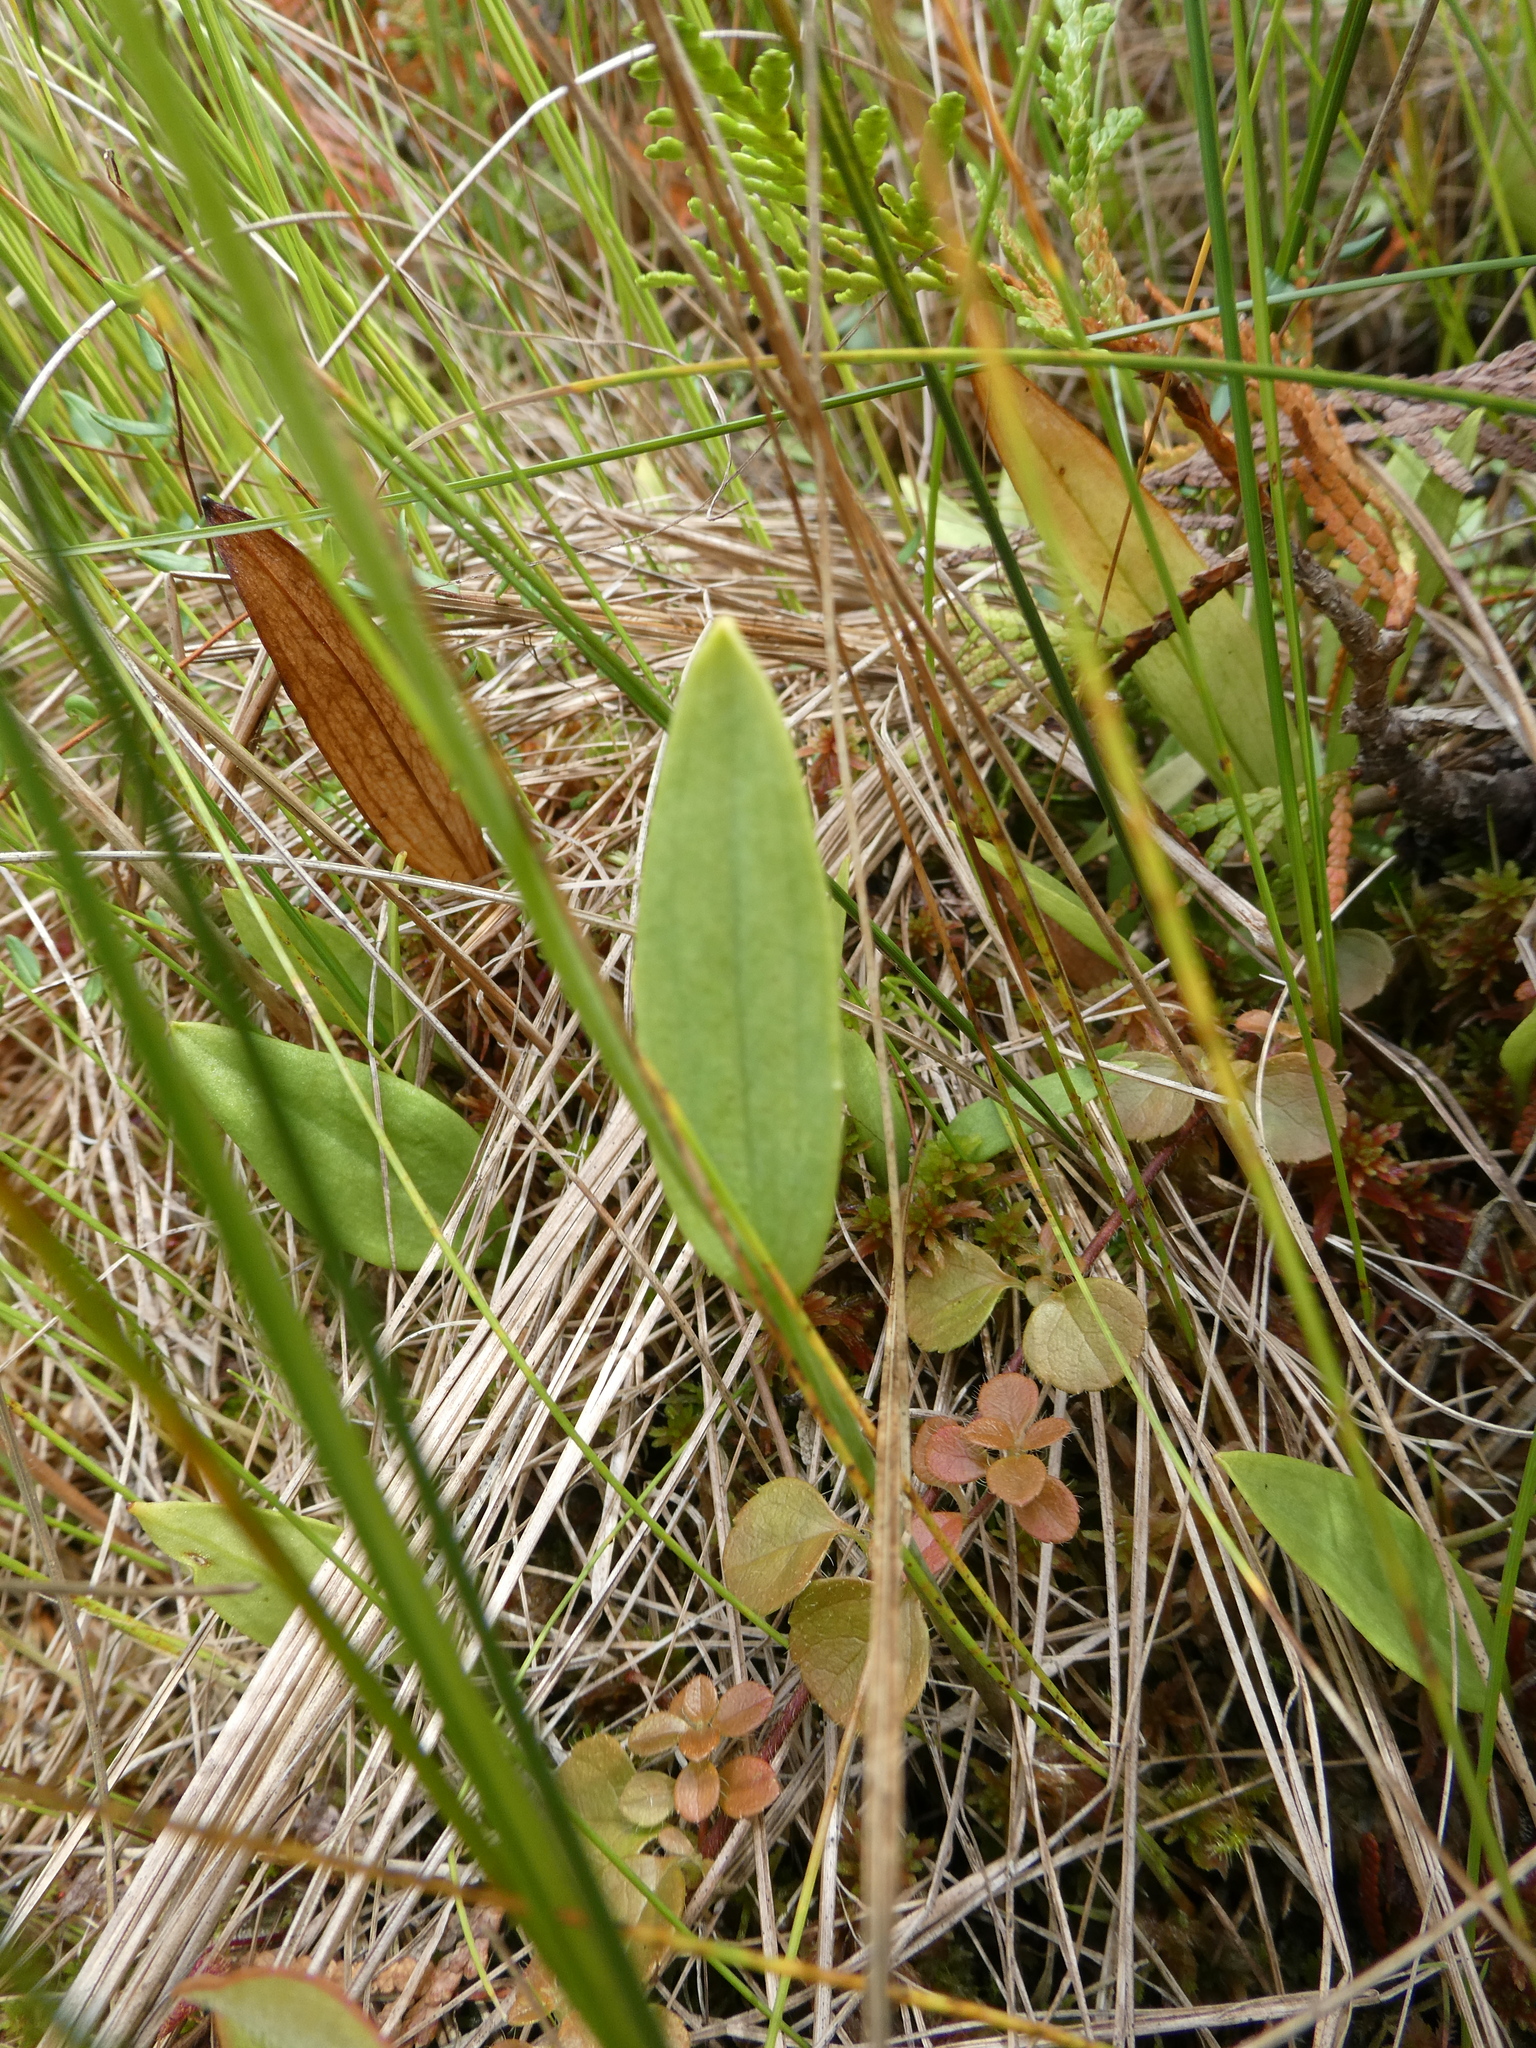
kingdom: Plantae
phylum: Tracheophyta
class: Liliopsida
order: Asparagales
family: Orchidaceae
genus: Pogonia
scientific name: Pogonia ophioglossoides
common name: Rose pogonia
